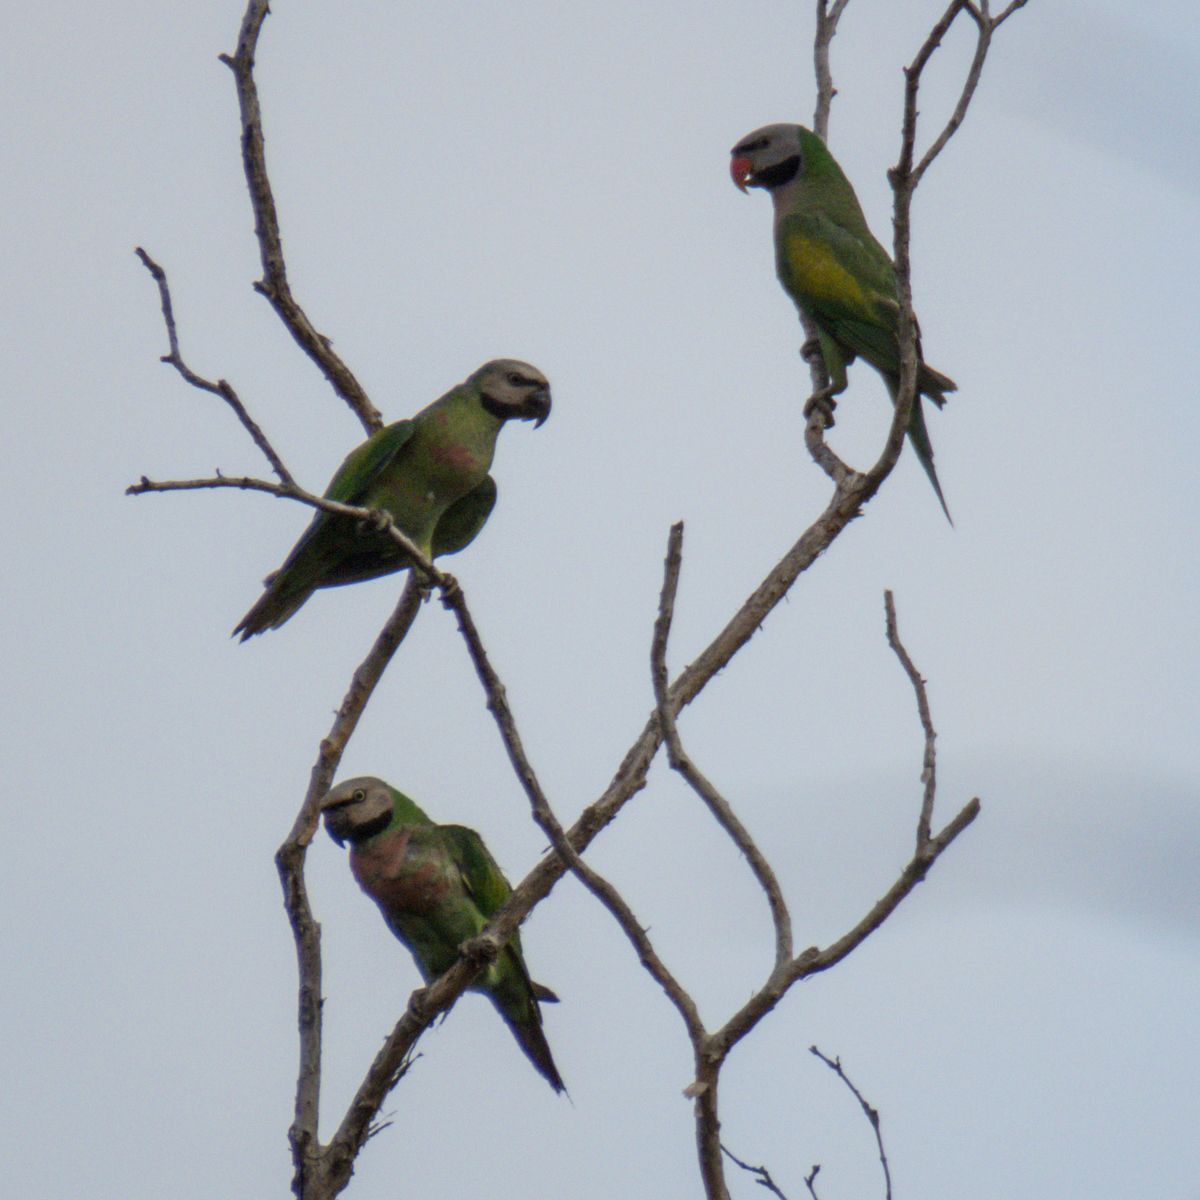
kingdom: Animalia
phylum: Chordata
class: Aves
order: Psittaciformes
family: Psittacidae
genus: Psittacula
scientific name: Psittacula alexandri
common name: Red-breasted parakeet
